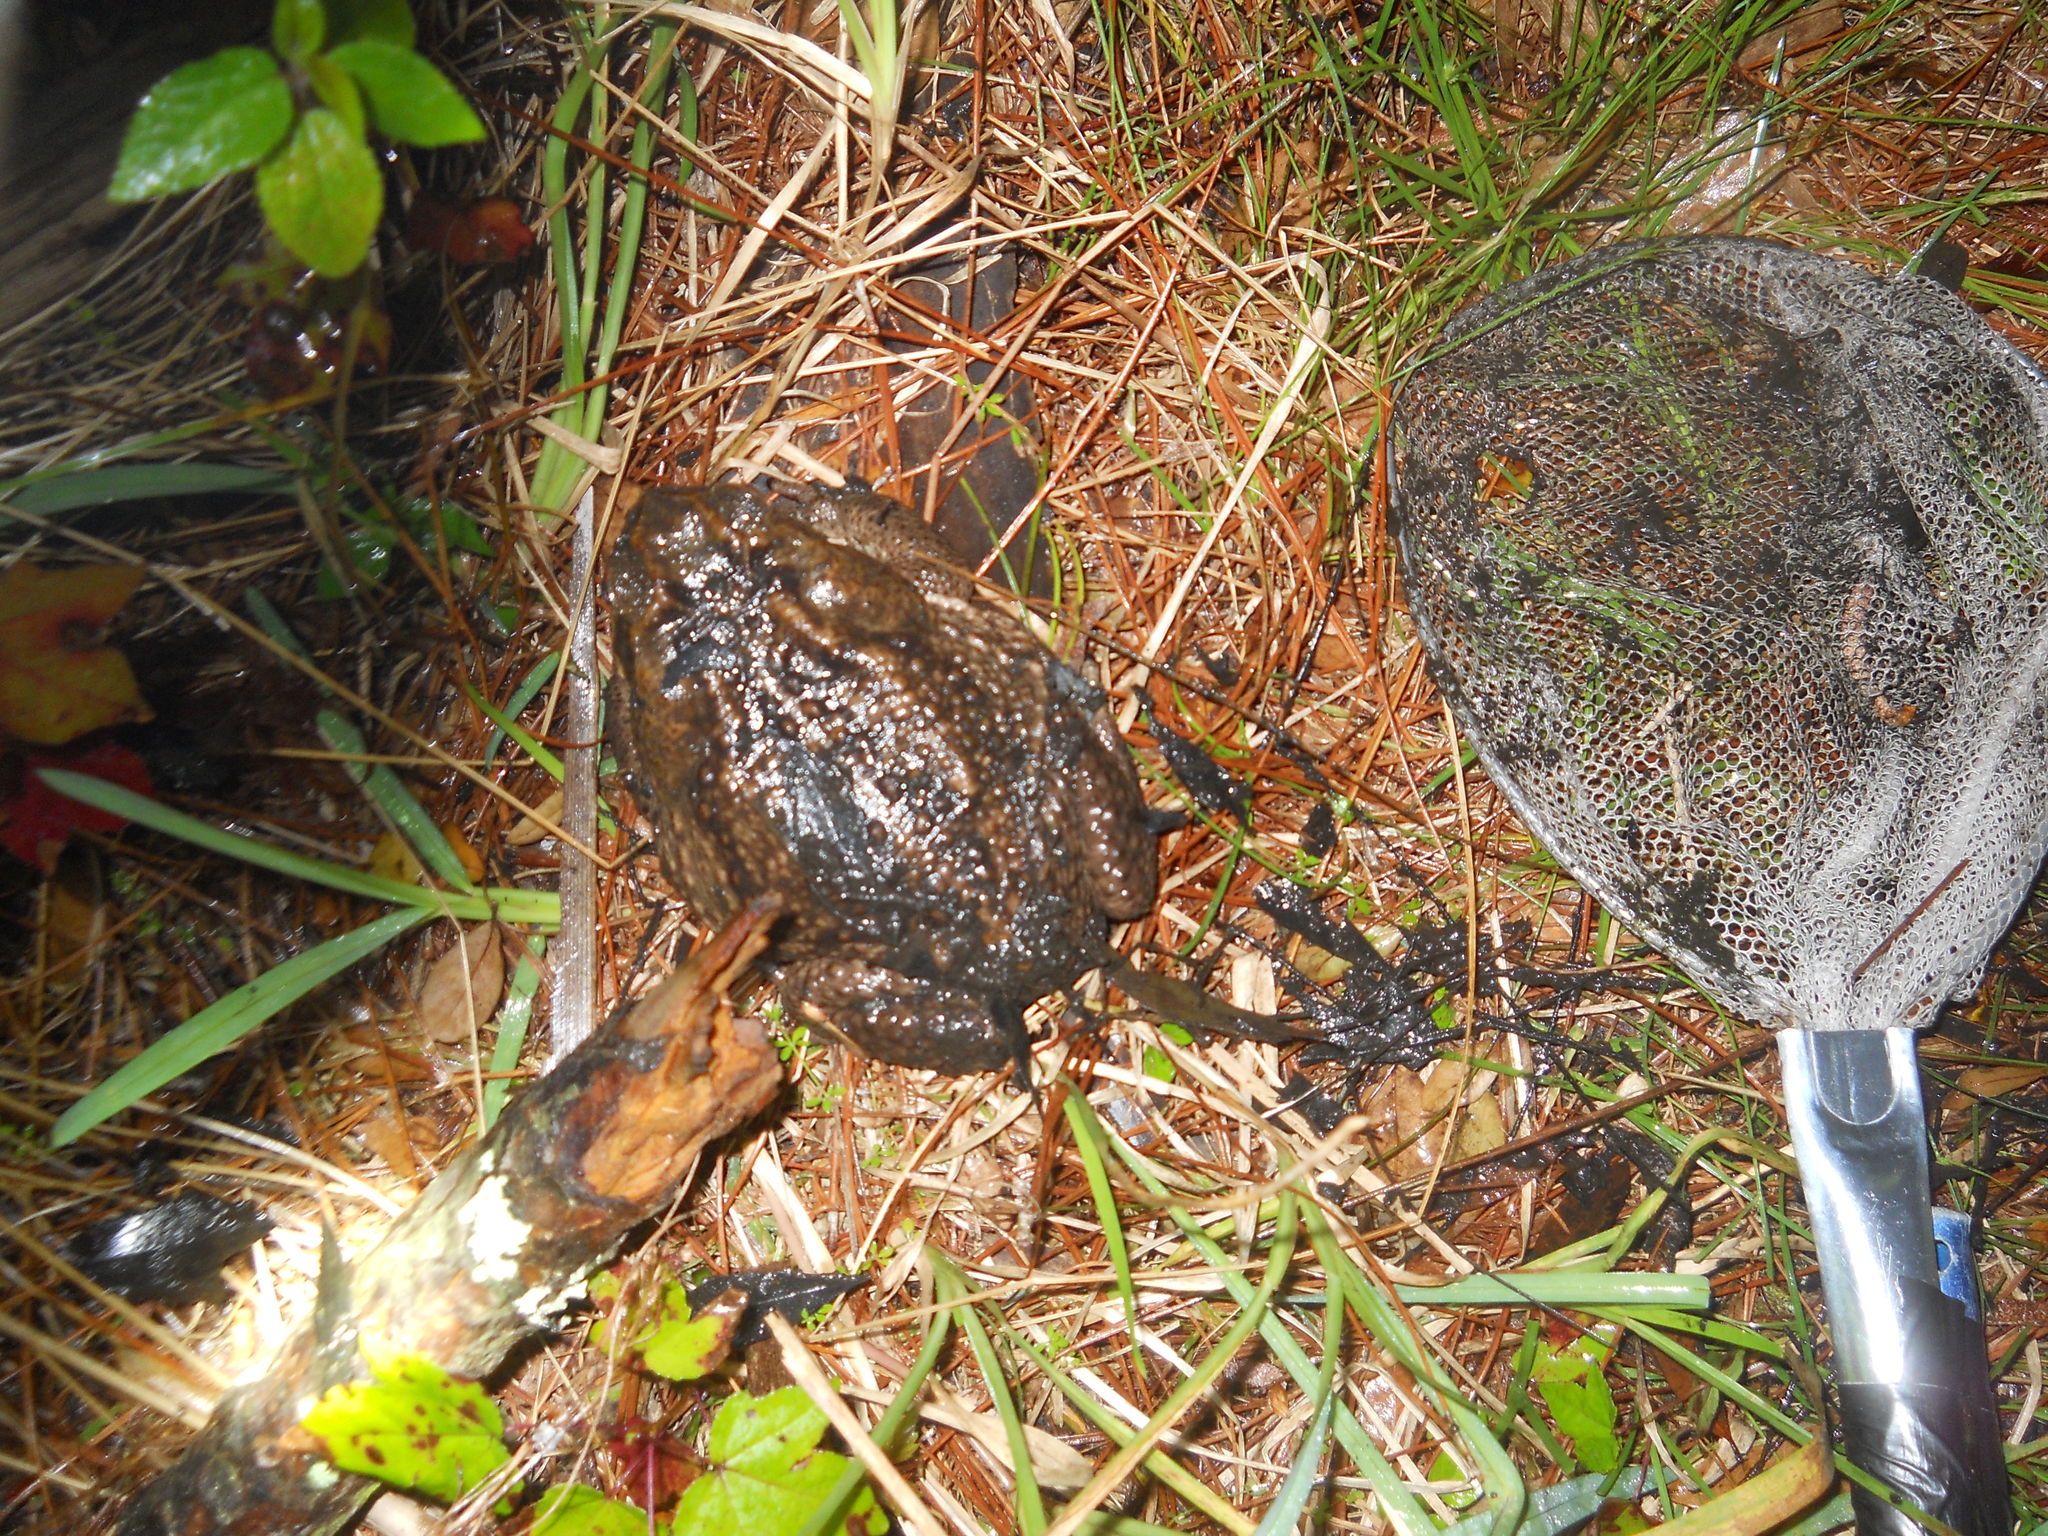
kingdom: Animalia
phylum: Chordata
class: Amphibia
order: Anura
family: Bufonidae
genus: Rhinella
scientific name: Rhinella marina
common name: Cane toad
